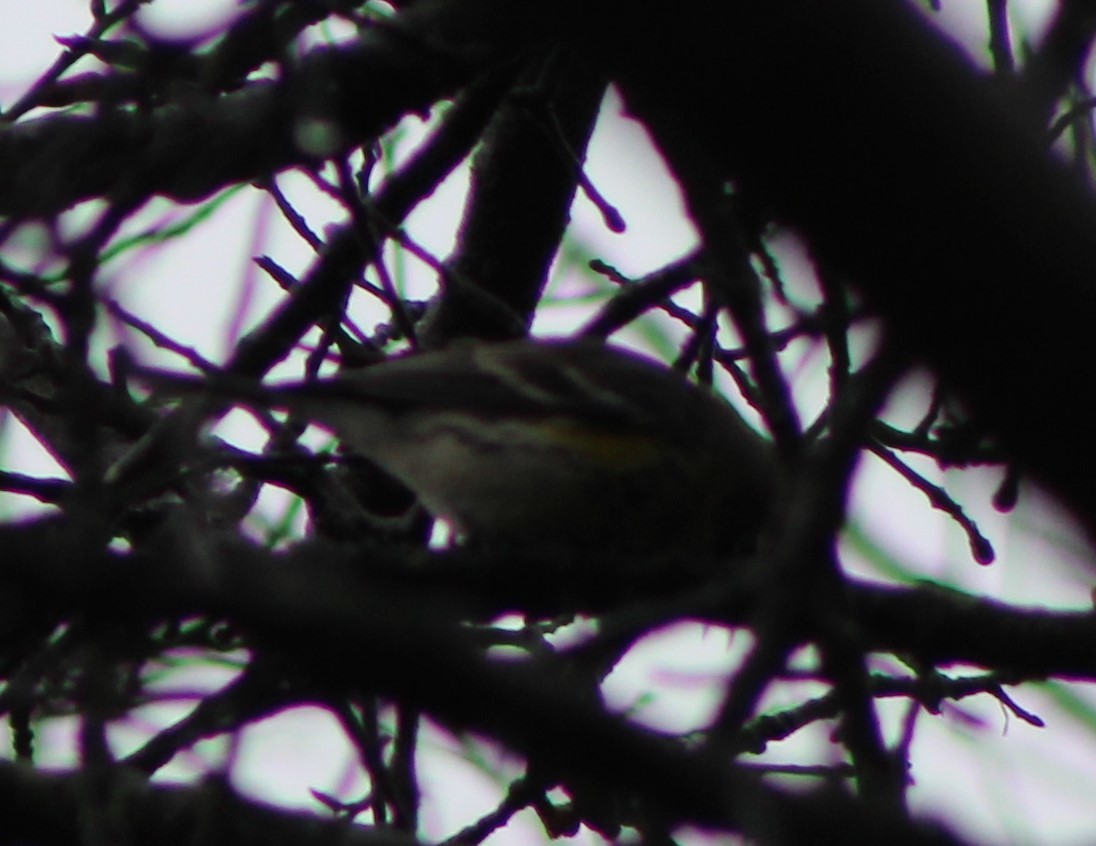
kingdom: Animalia
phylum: Chordata
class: Aves
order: Passeriformes
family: Parulidae
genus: Setophaga
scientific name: Setophaga coronata
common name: Myrtle warbler
